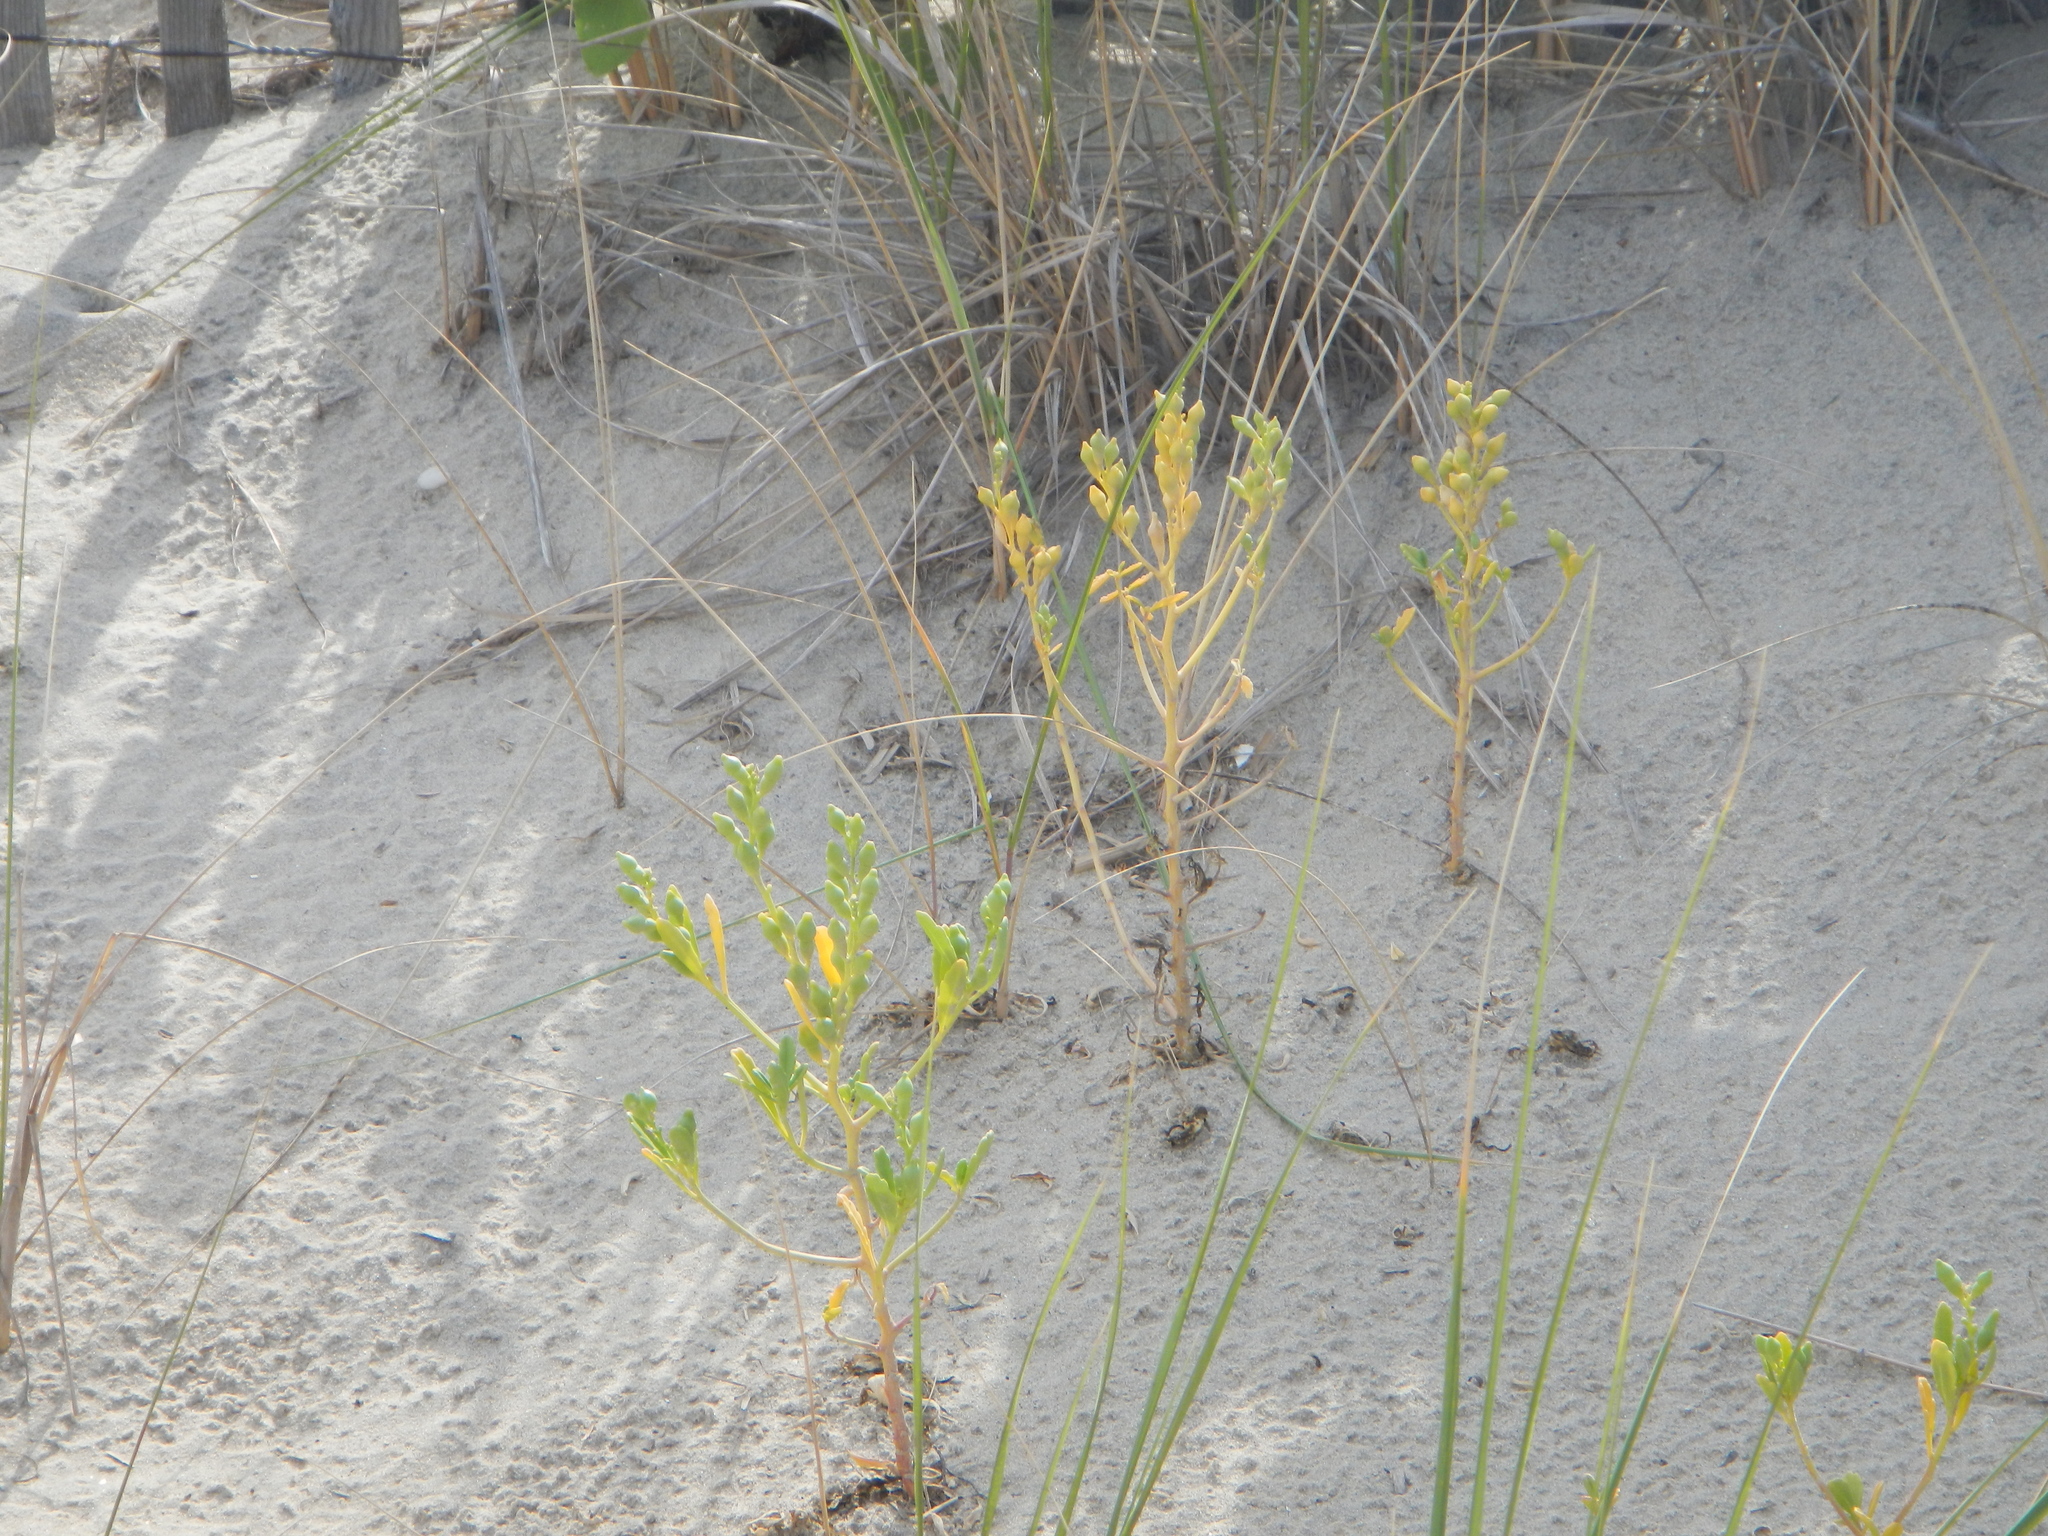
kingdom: Plantae
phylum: Tracheophyta
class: Magnoliopsida
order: Brassicales
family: Brassicaceae
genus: Cakile
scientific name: Cakile edentula
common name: American sea rocket
